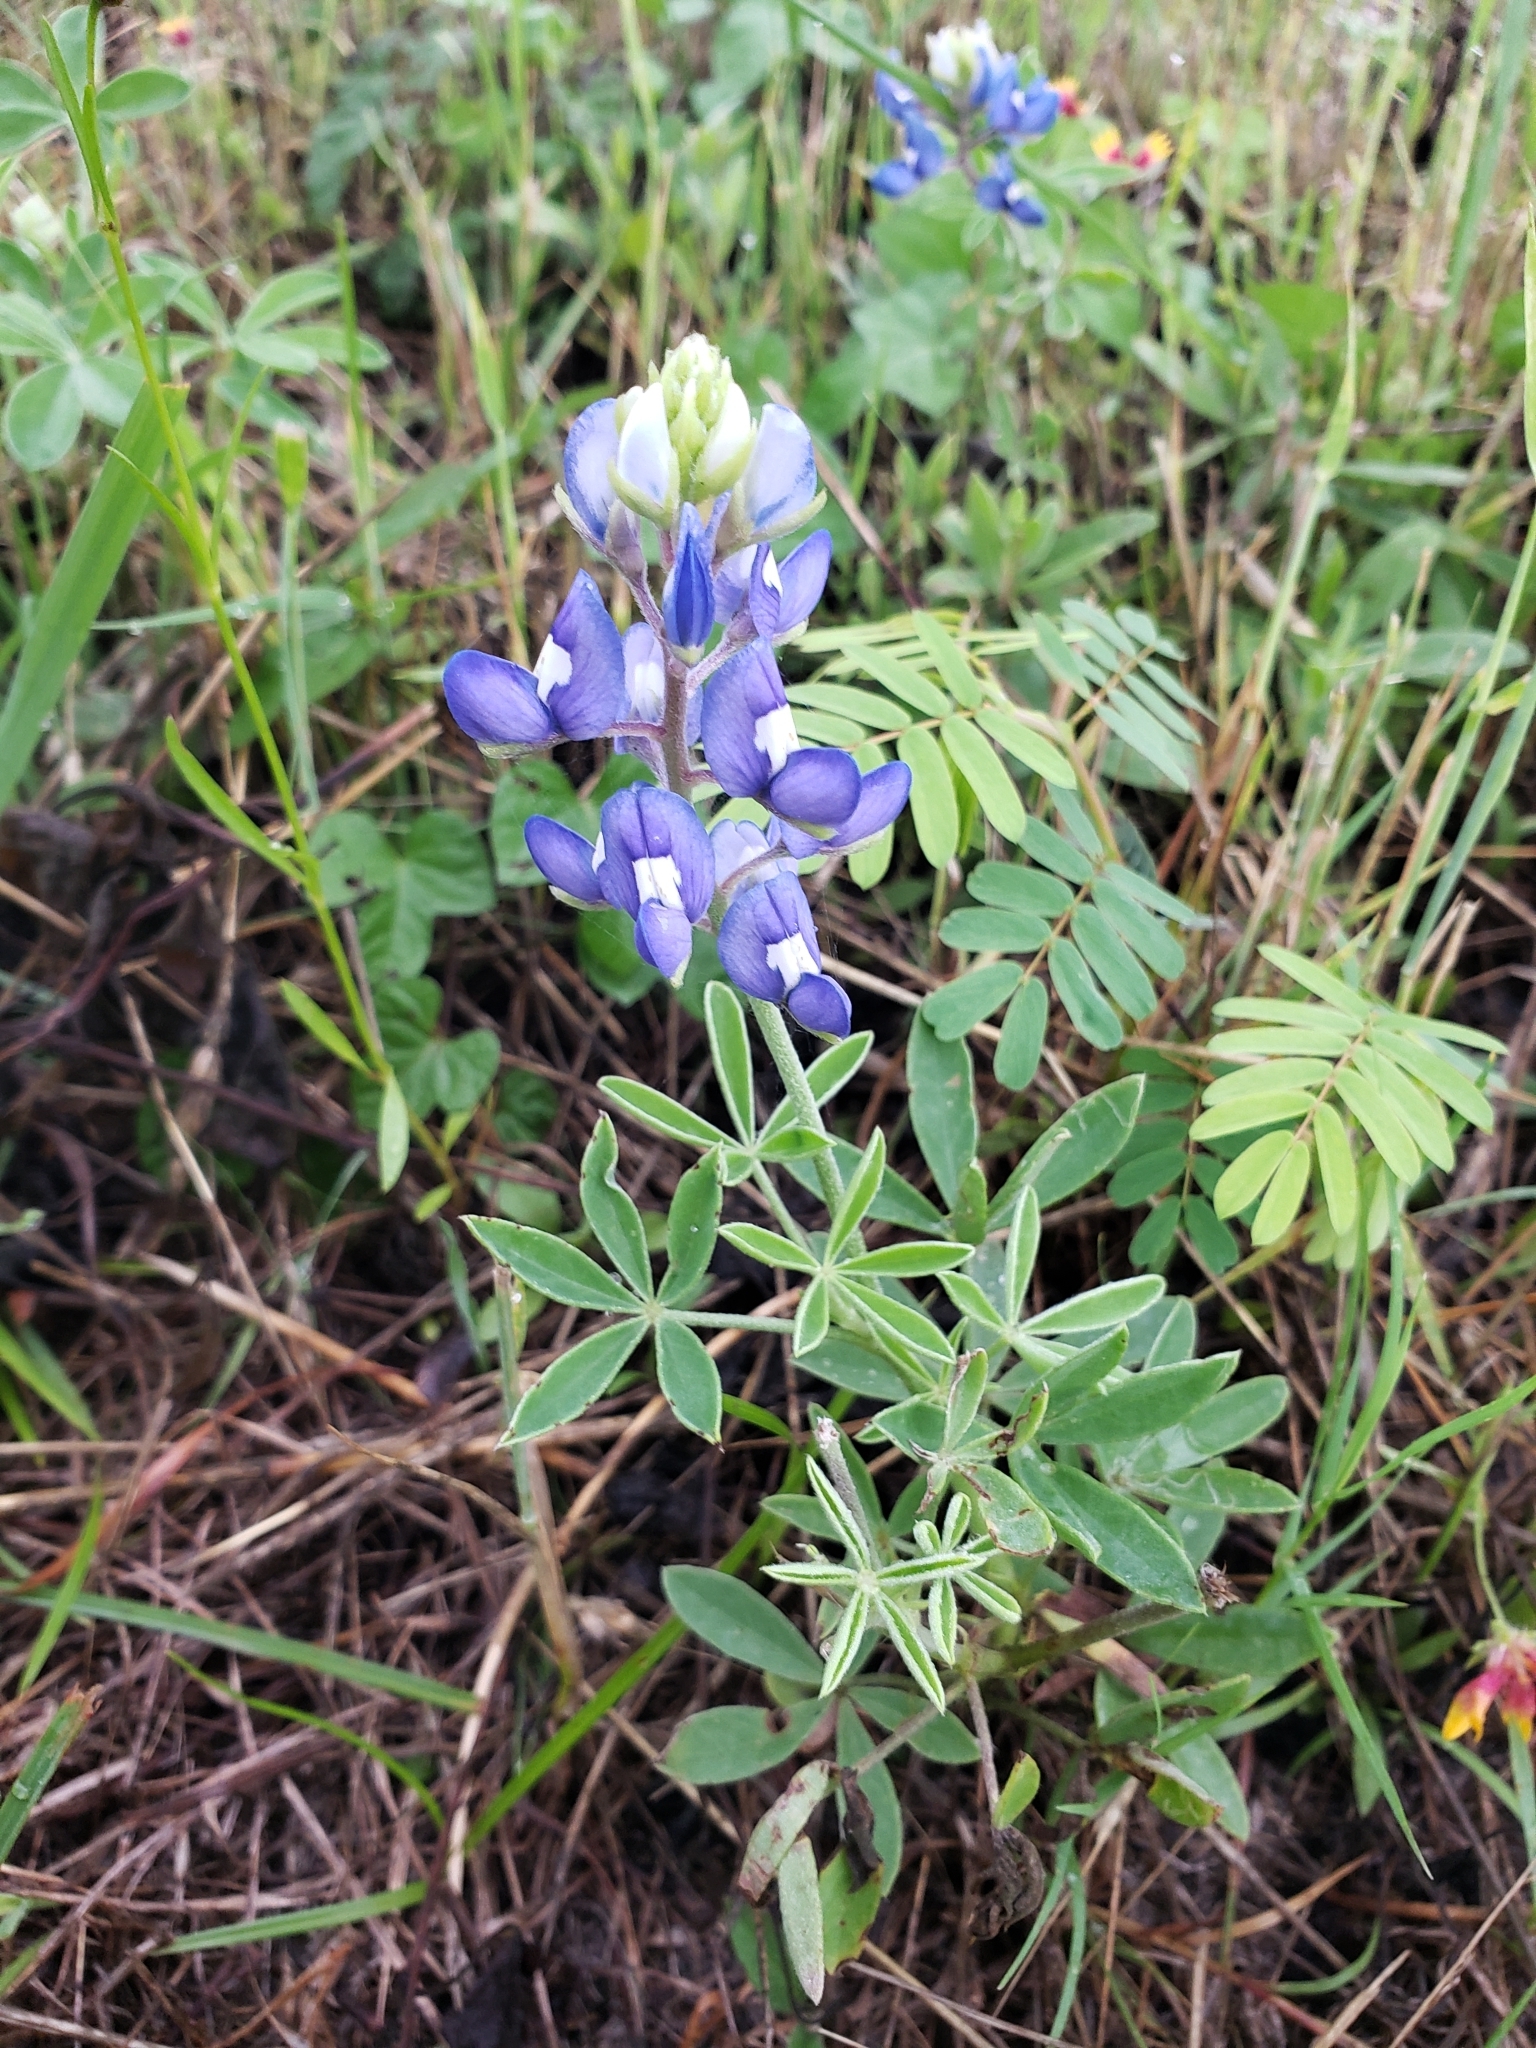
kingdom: Plantae
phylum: Tracheophyta
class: Magnoliopsida
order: Fabales
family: Fabaceae
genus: Lupinus
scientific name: Lupinus texensis
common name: Texas bluebonnet
